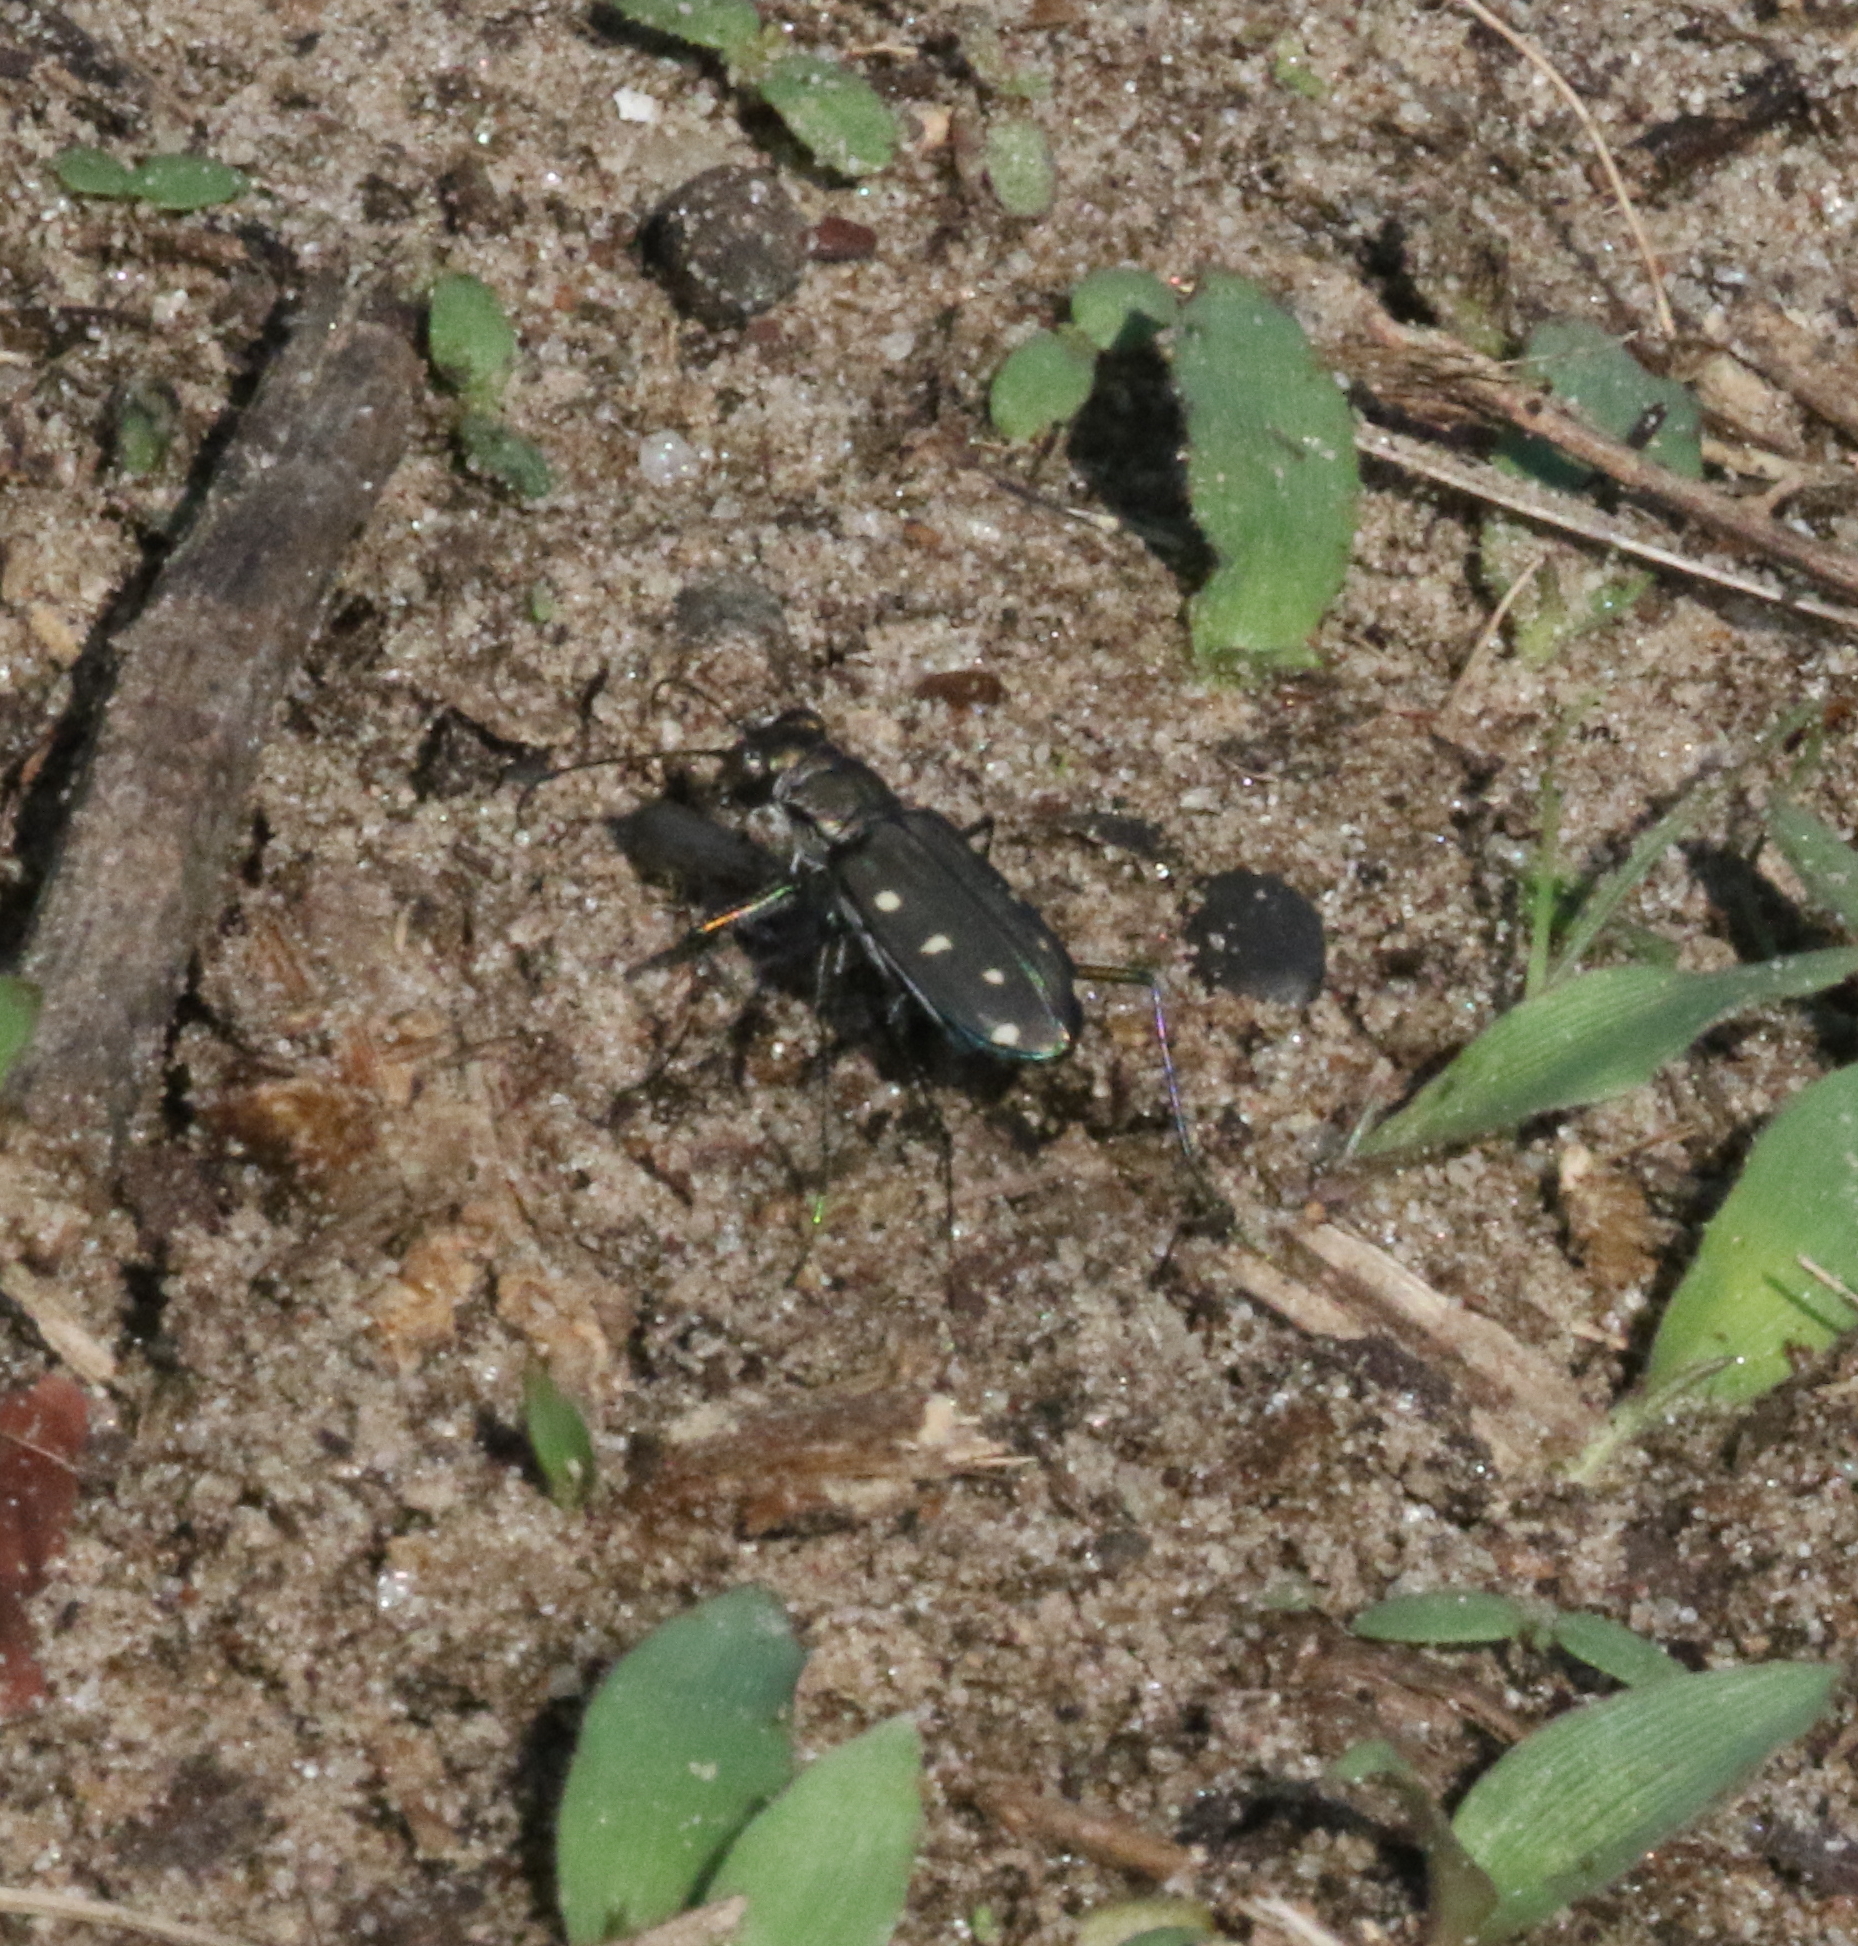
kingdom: Animalia
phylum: Arthropoda
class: Insecta
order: Coleoptera
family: Carabidae
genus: Cicindela
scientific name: Cicindela ocellata
